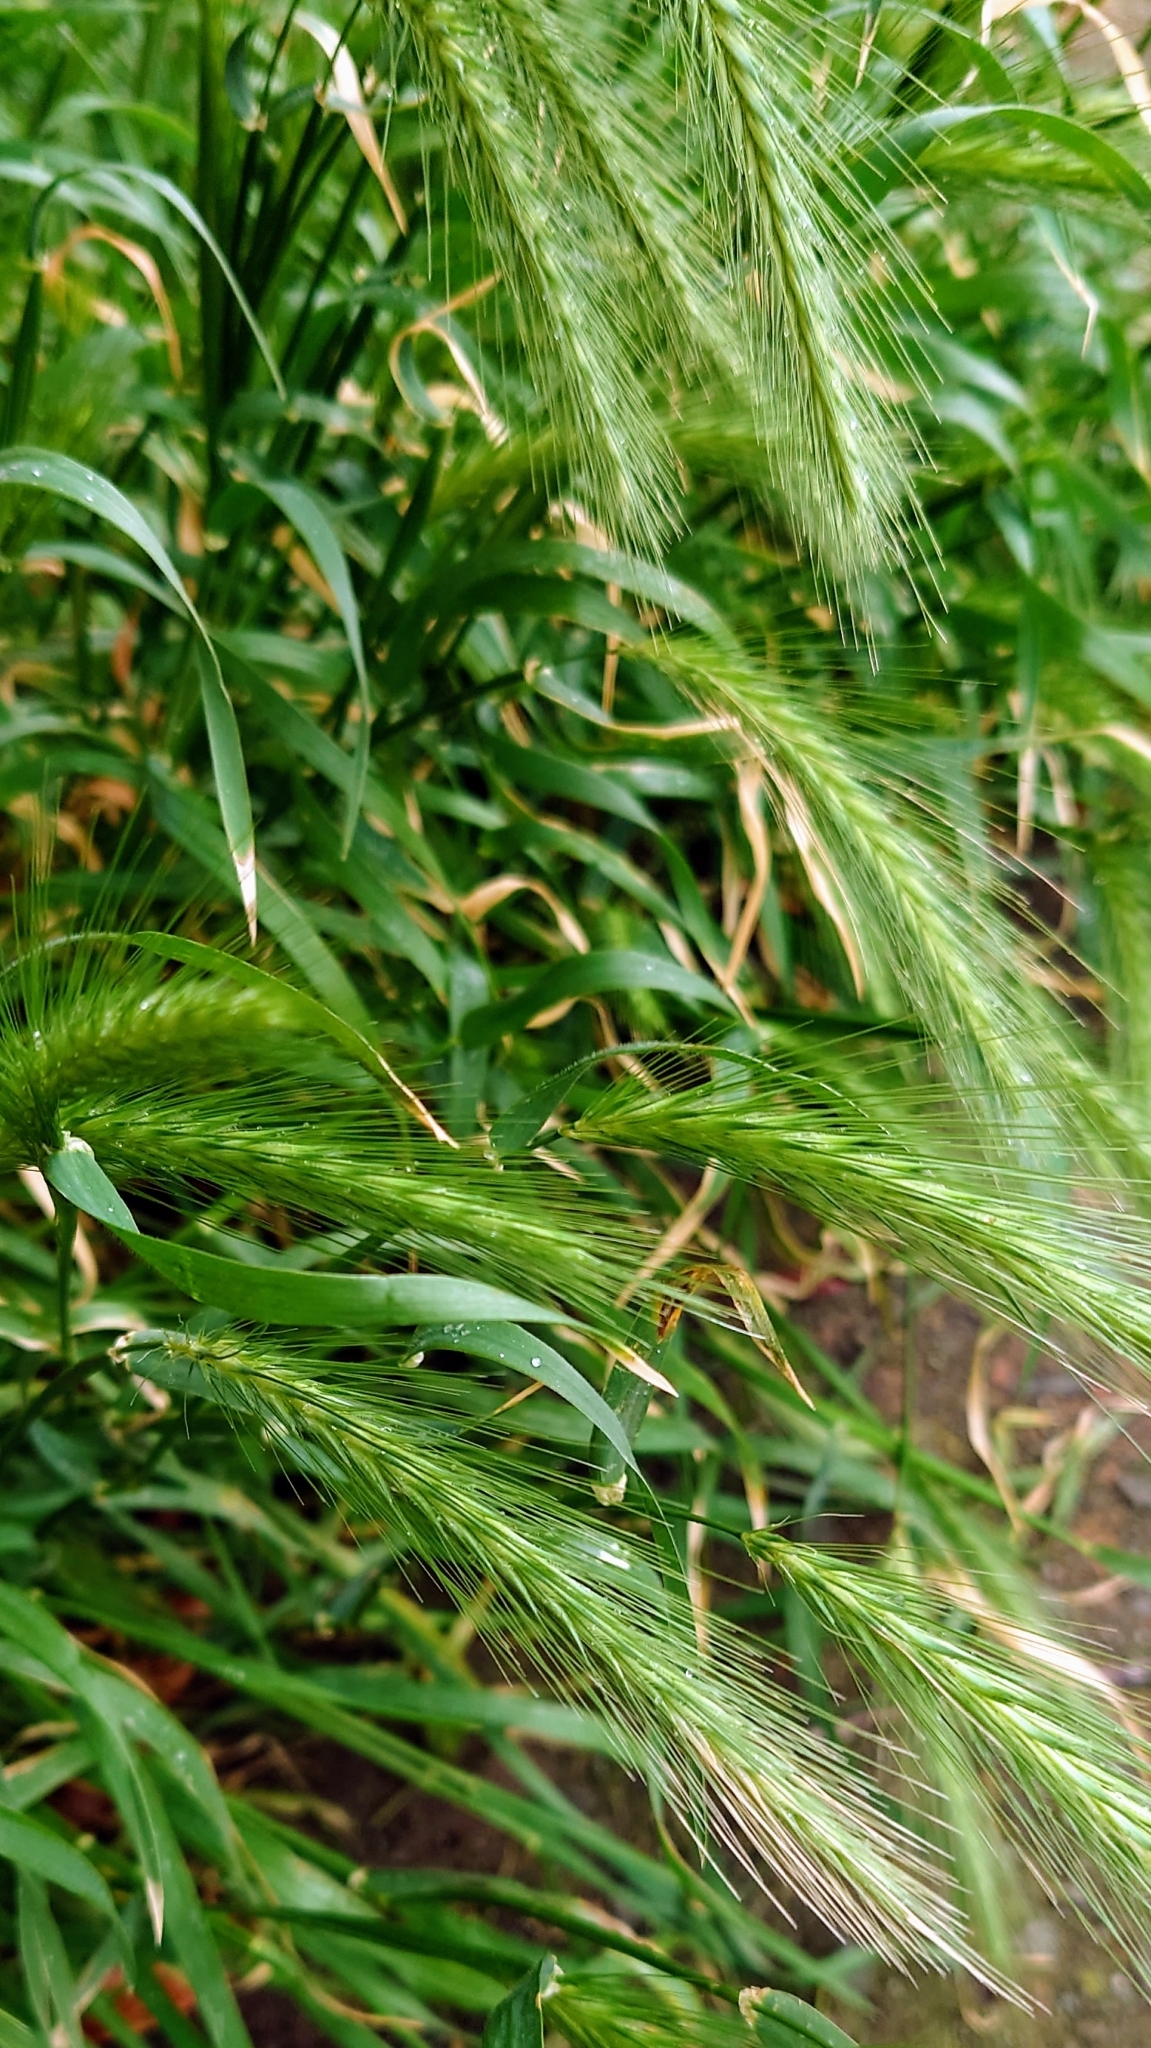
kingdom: Plantae
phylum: Tracheophyta
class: Liliopsida
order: Poales
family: Poaceae
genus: Hordeum
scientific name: Hordeum murinum
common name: Wall barley
